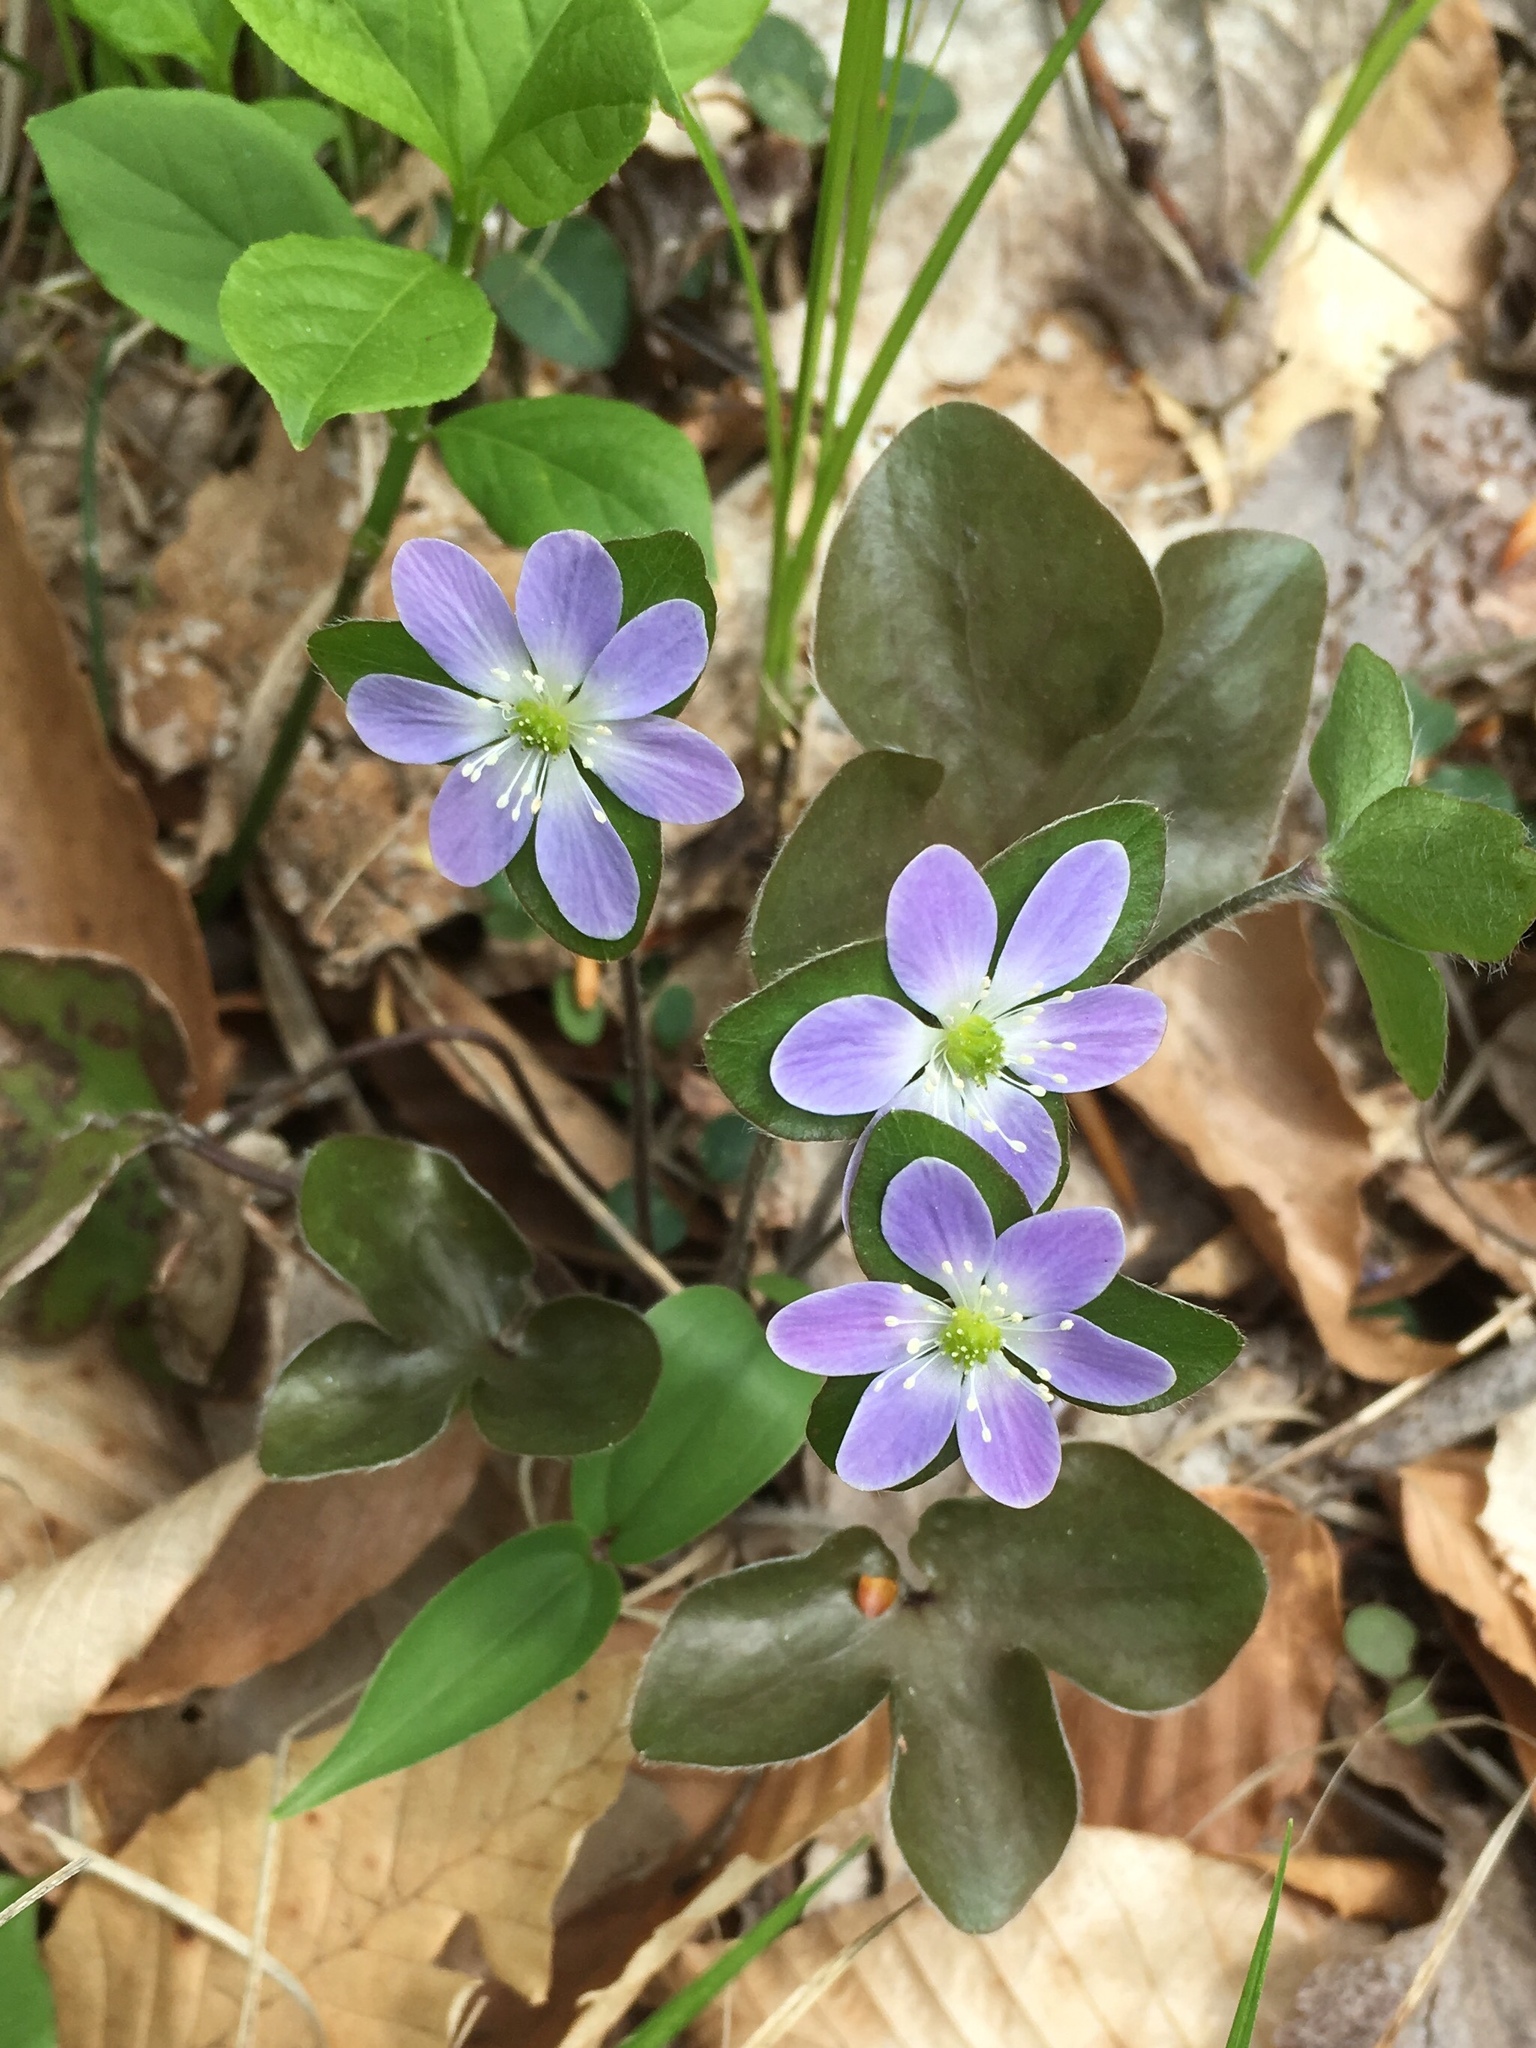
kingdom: Plantae
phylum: Tracheophyta
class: Magnoliopsida
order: Ranunculales
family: Ranunculaceae
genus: Hepatica
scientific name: Hepatica americana
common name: American hepatica
